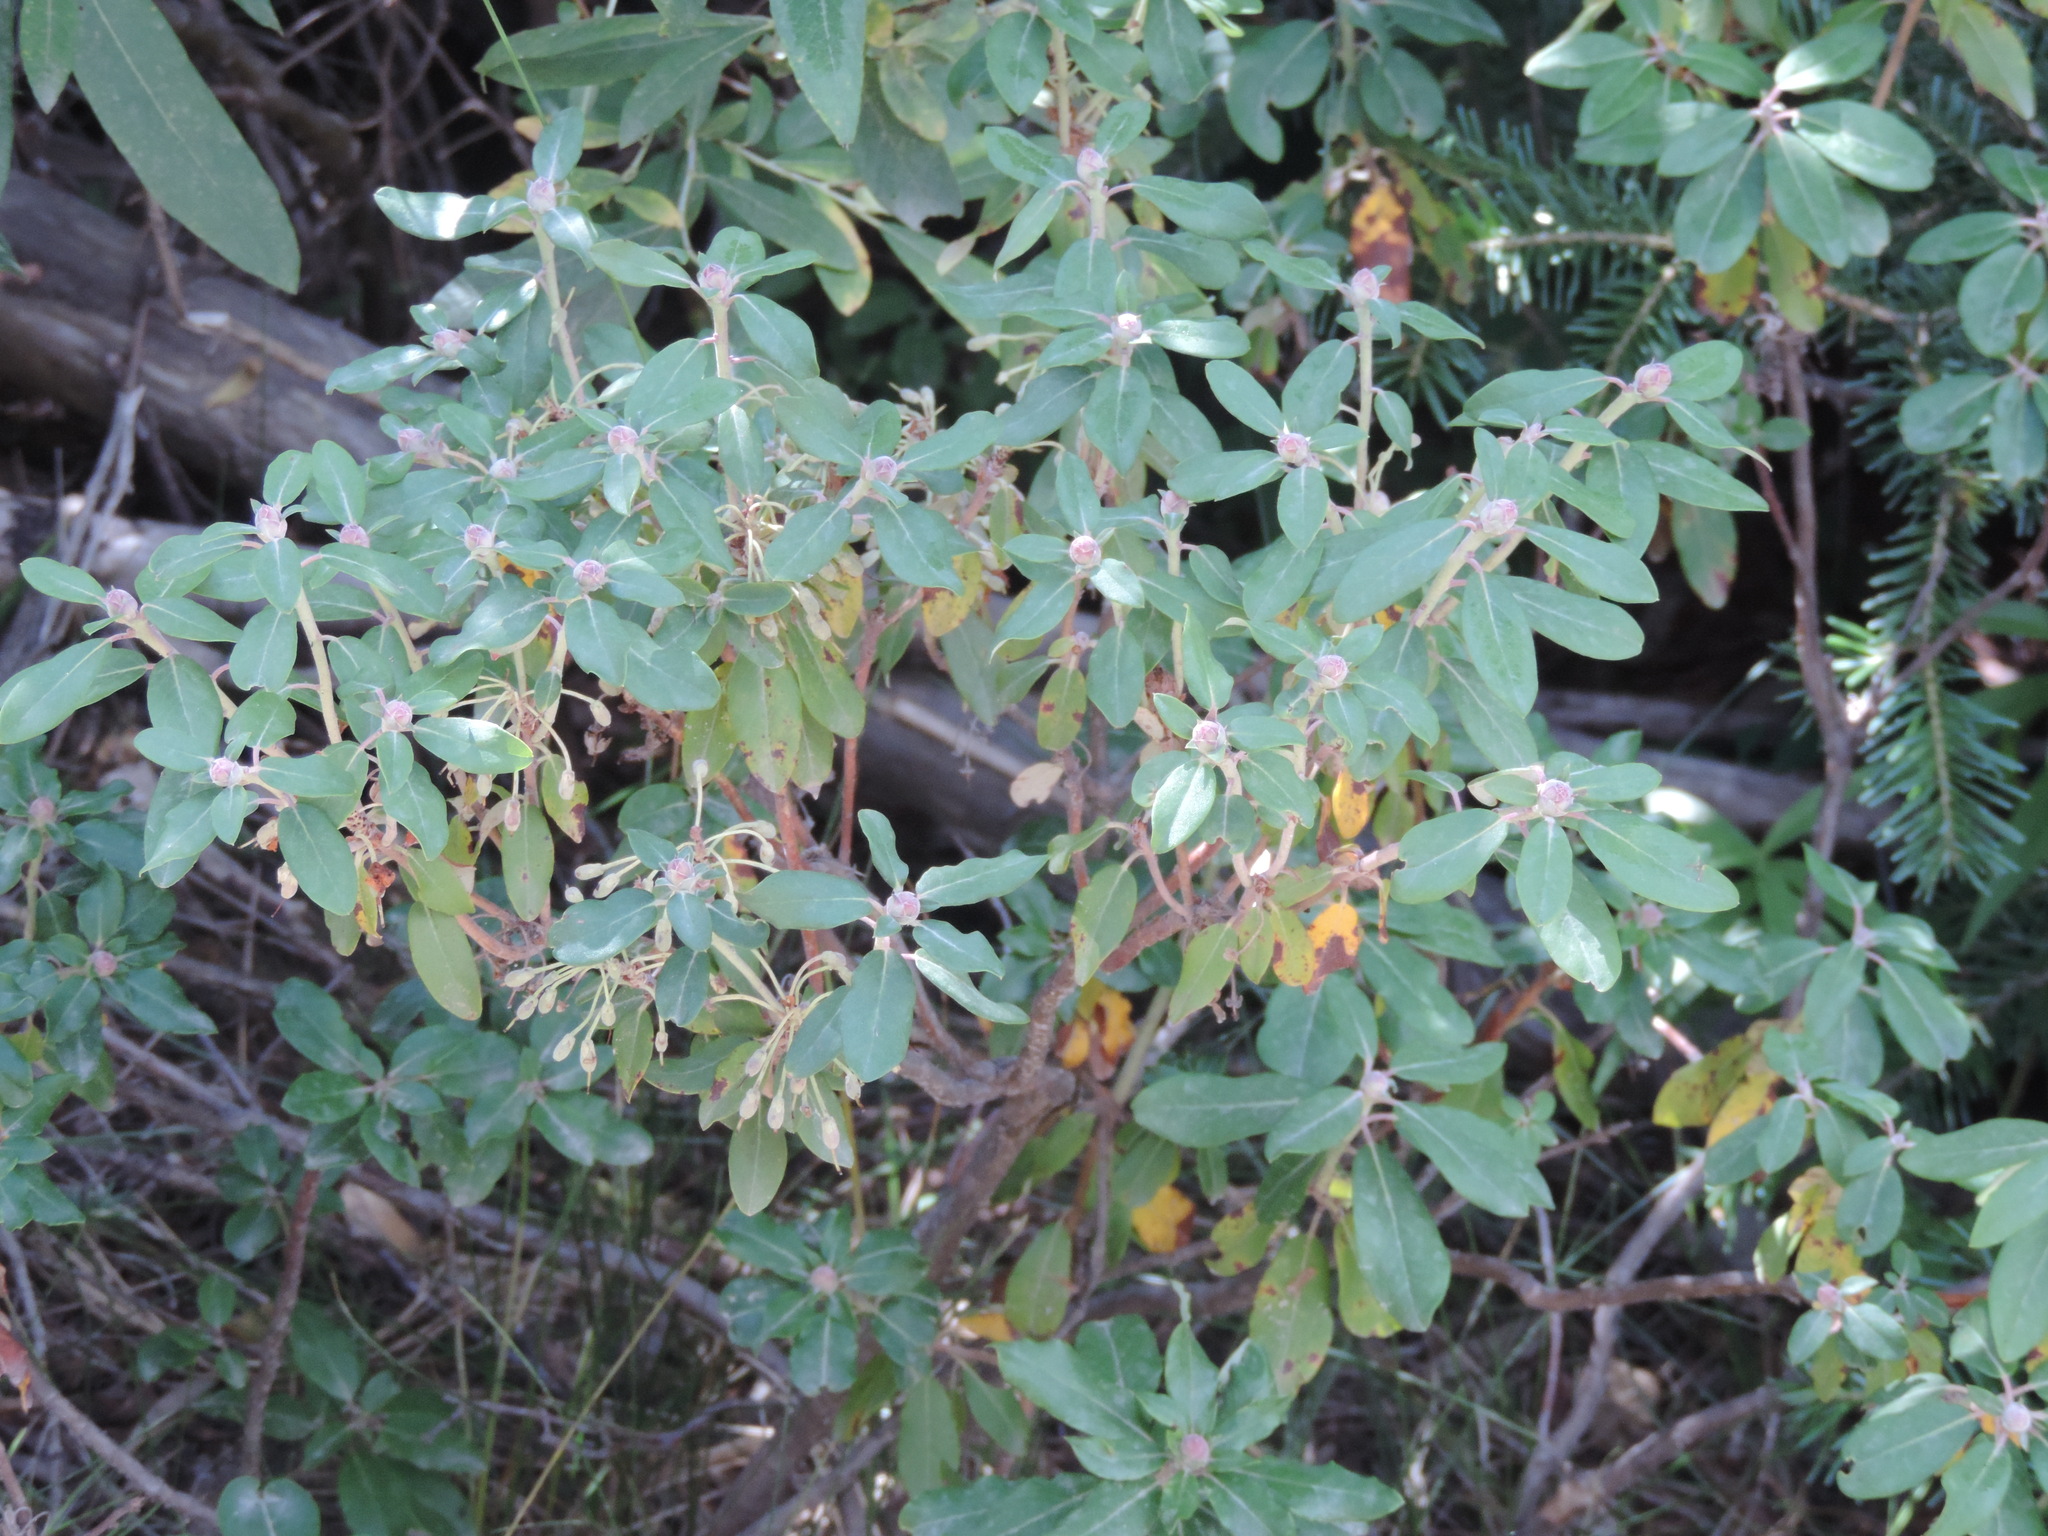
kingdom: Plantae
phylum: Tracheophyta
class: Magnoliopsida
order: Ericales
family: Ericaceae
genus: Rhododendron
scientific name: Rhododendron columbianum
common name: Western labrador tea
